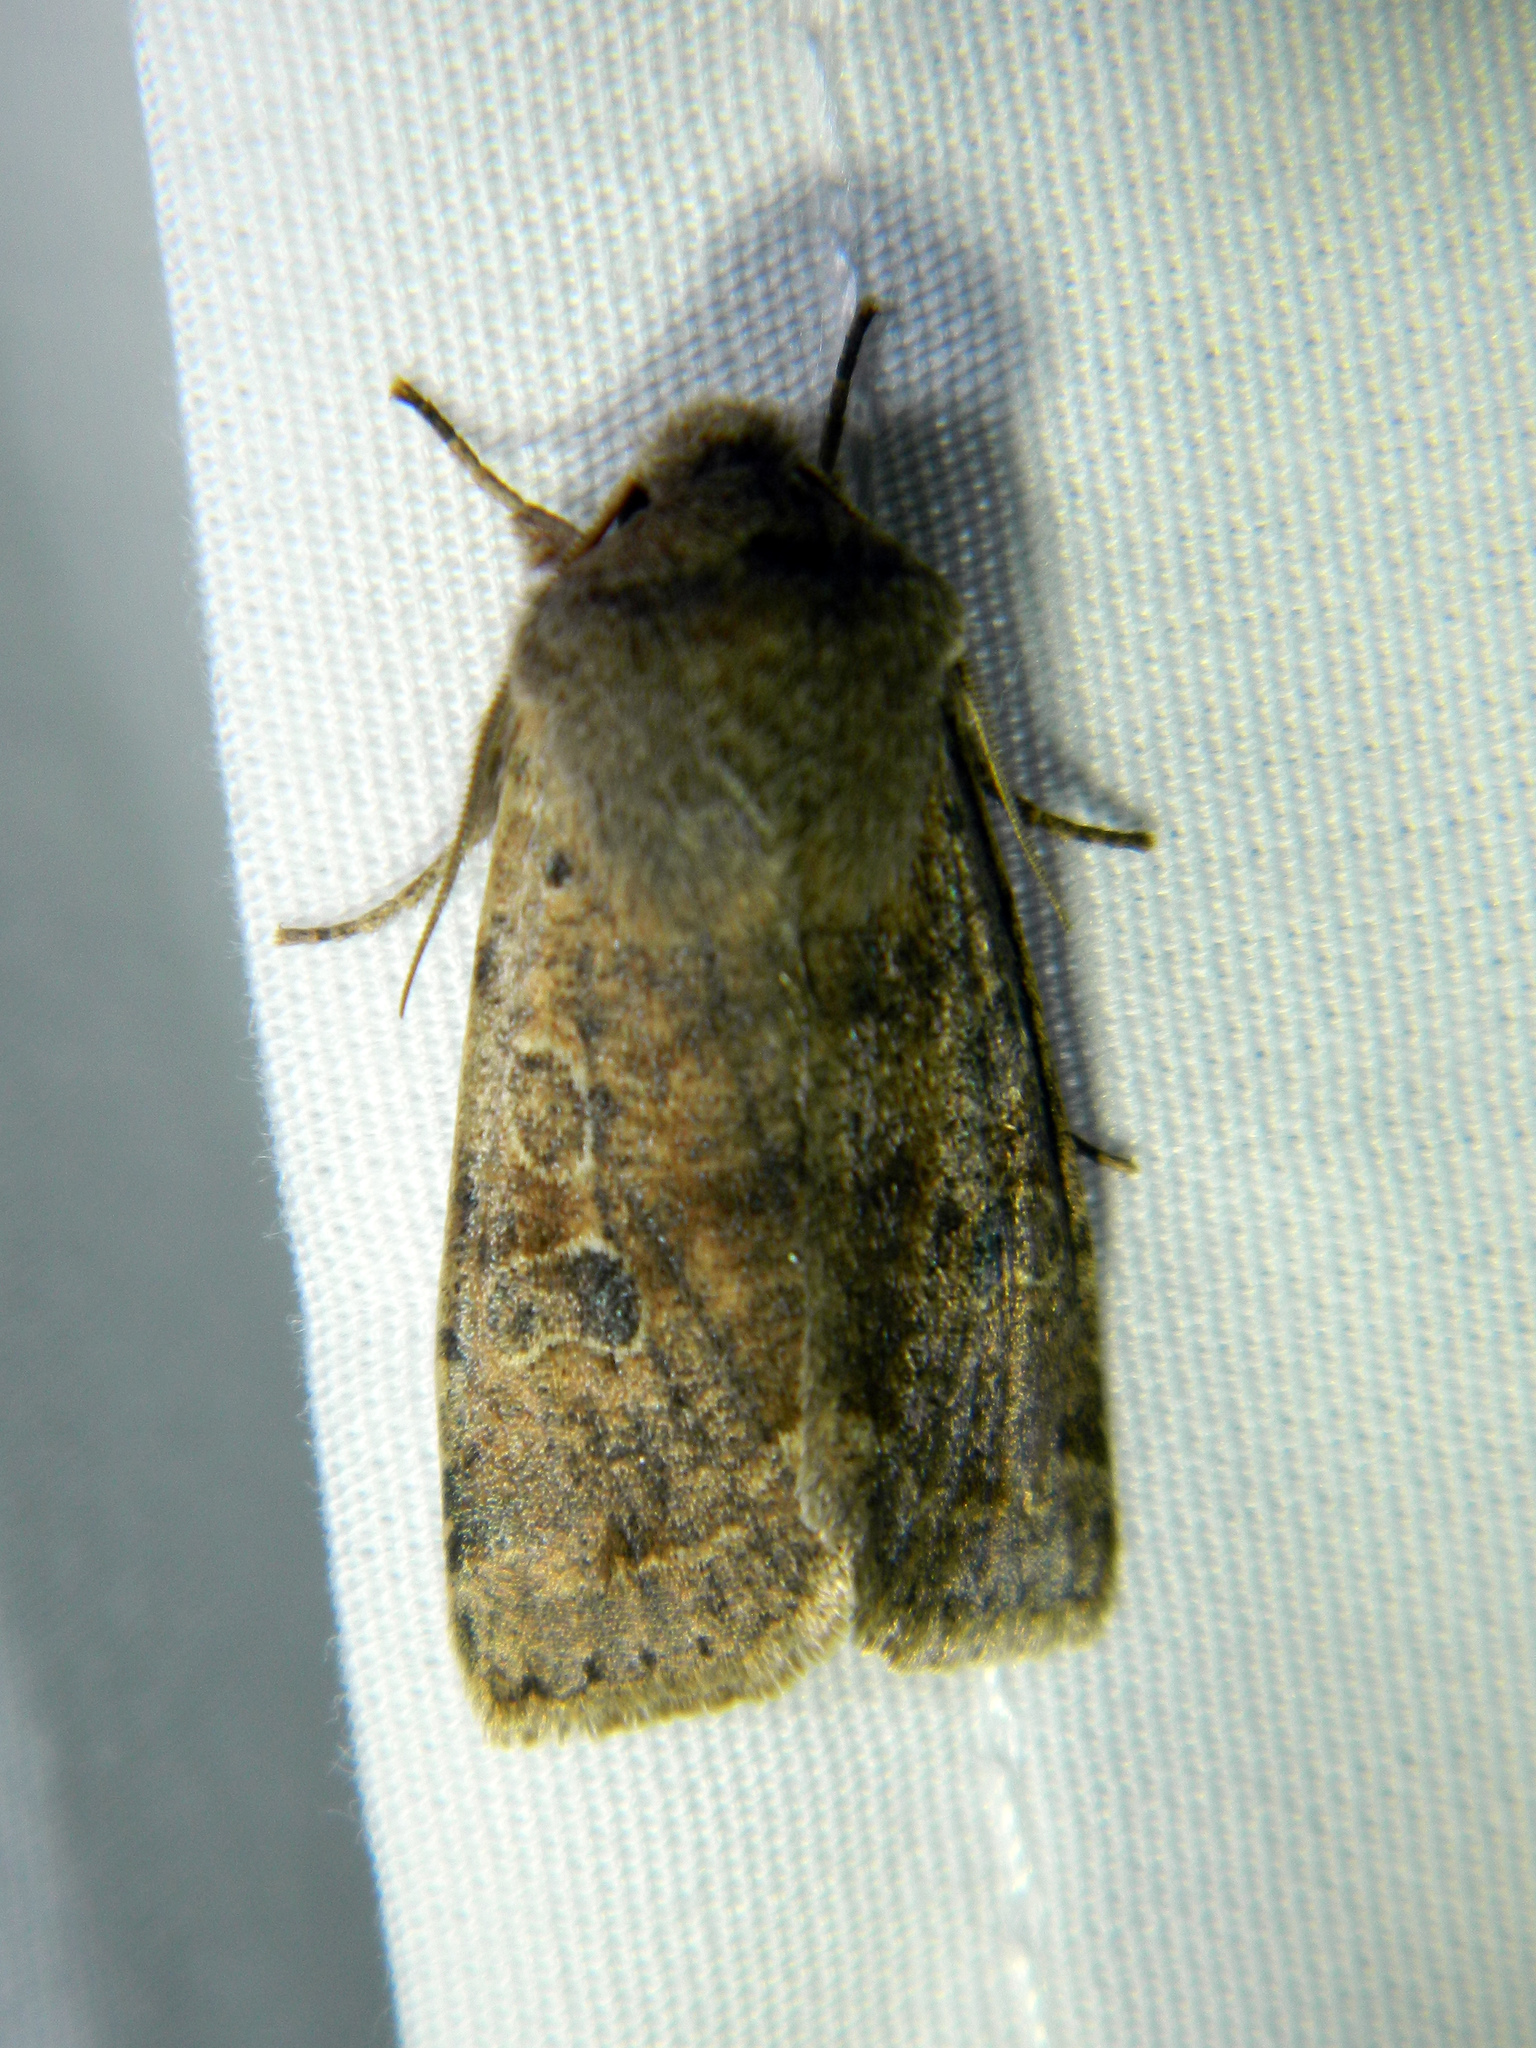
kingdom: Animalia
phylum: Arthropoda
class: Insecta
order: Lepidoptera
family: Noctuidae
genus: Orthosia
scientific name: Orthosia hibisci
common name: Green fruitworm
